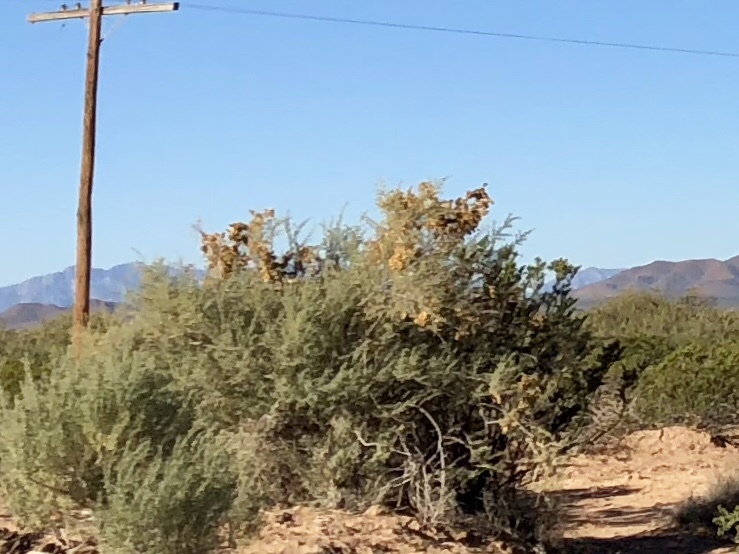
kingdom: Plantae
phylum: Tracheophyta
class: Magnoliopsida
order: Caryophyllales
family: Amaranthaceae
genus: Atriplex
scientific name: Atriplex canescens
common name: Four-wing saltbush
